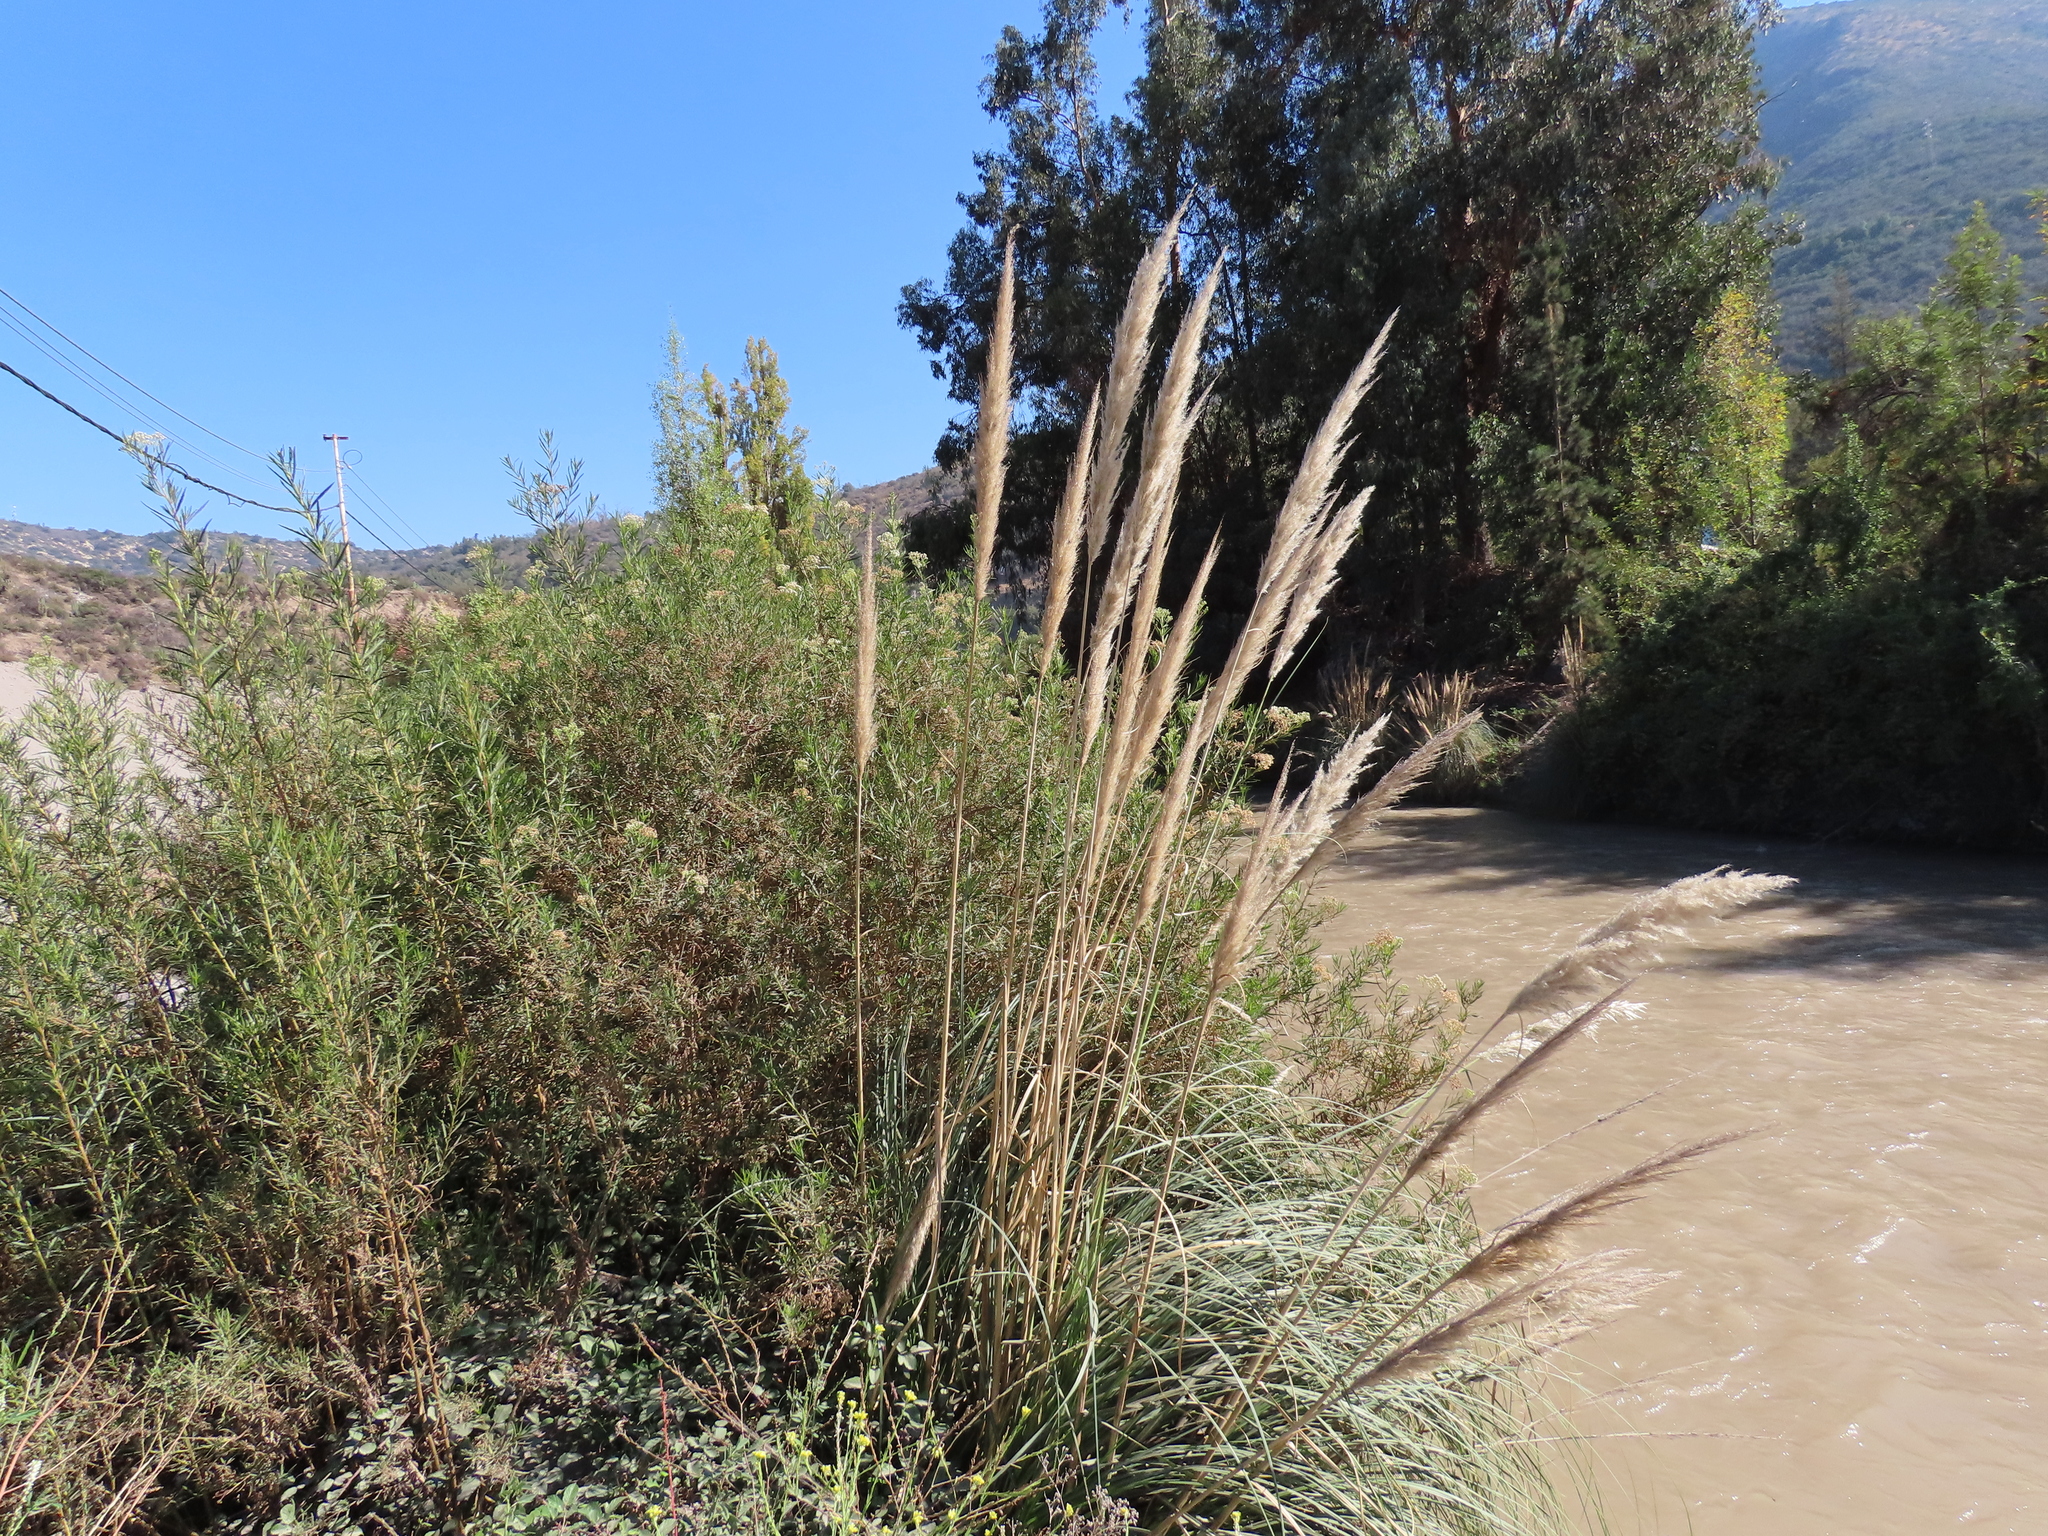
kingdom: Plantae
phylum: Tracheophyta
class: Liliopsida
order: Poales
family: Poaceae
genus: Cortaderia
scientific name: Cortaderia rudiuscula
